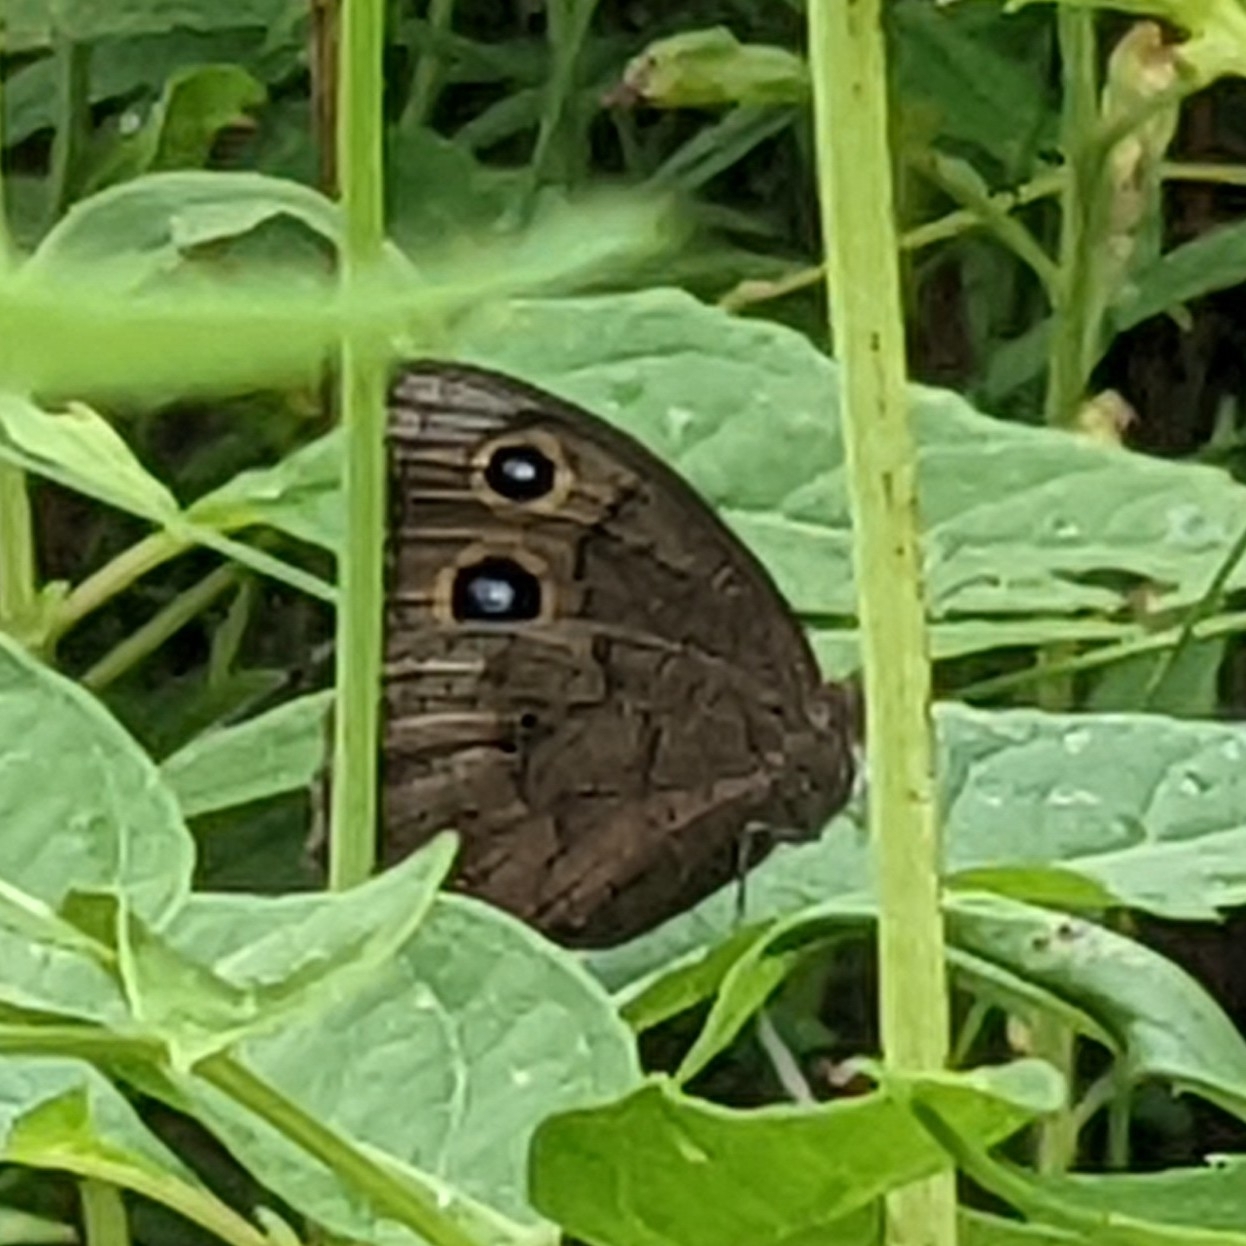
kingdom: Animalia
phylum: Arthropoda
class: Insecta
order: Lepidoptera
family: Nymphalidae
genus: Cercyonis
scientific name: Cercyonis pegala
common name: Common wood-nymph
